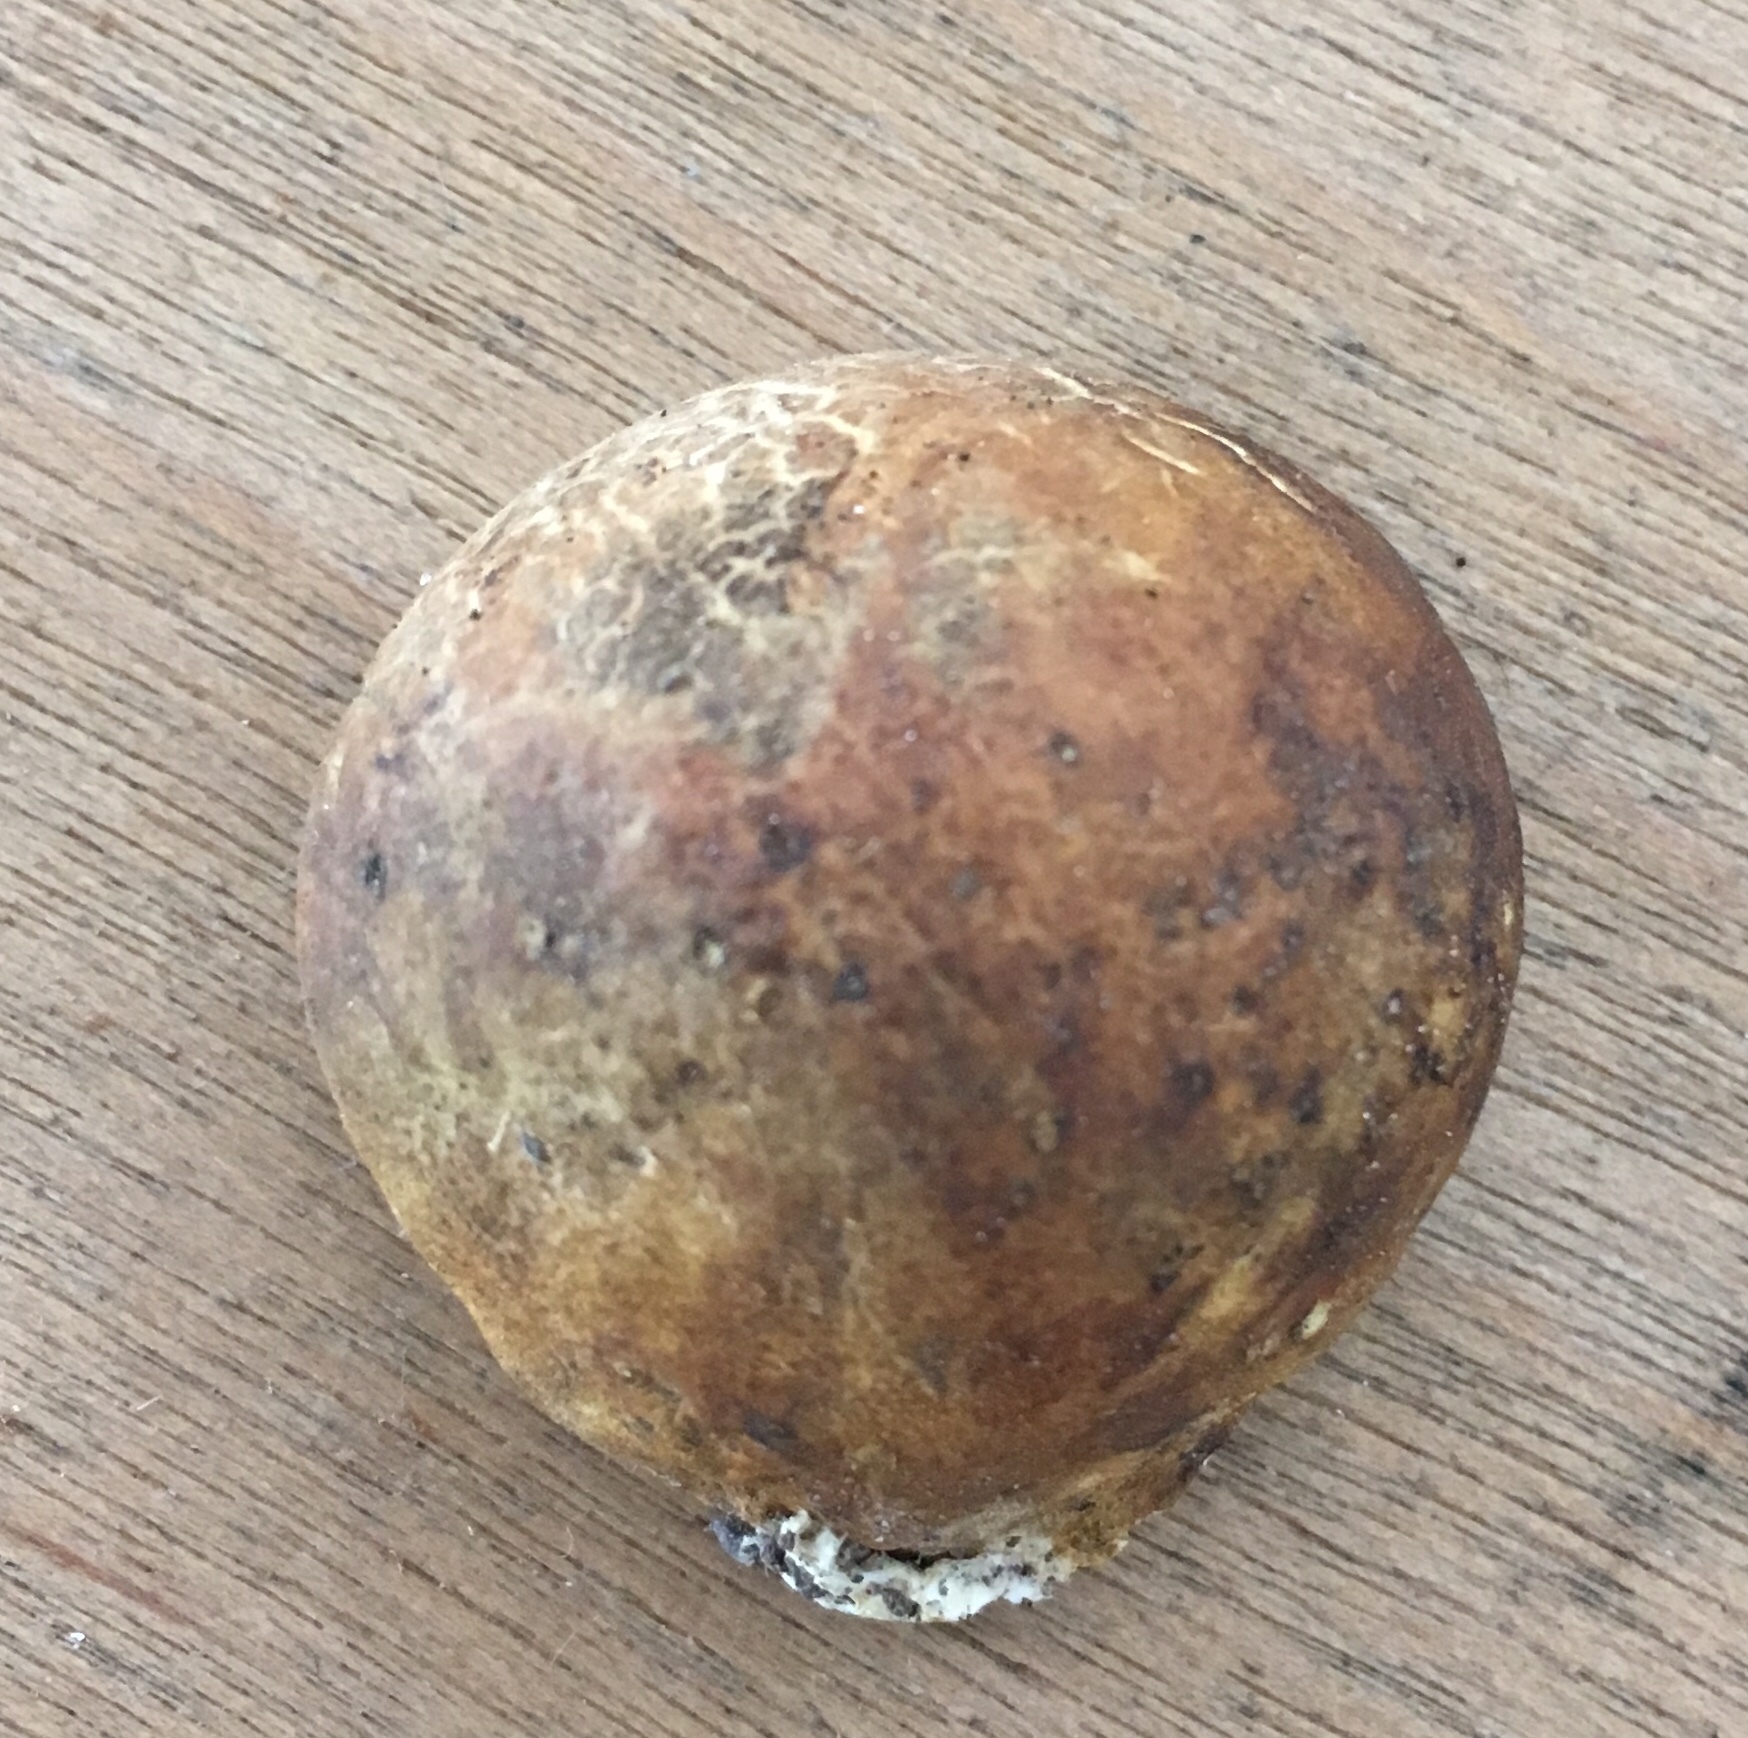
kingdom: Fungi
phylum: Basidiomycota
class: Agaricomycetes
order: Boletales
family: Sclerodermataceae
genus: Scleroderma
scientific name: Scleroderma bovista
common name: Potato earthball
